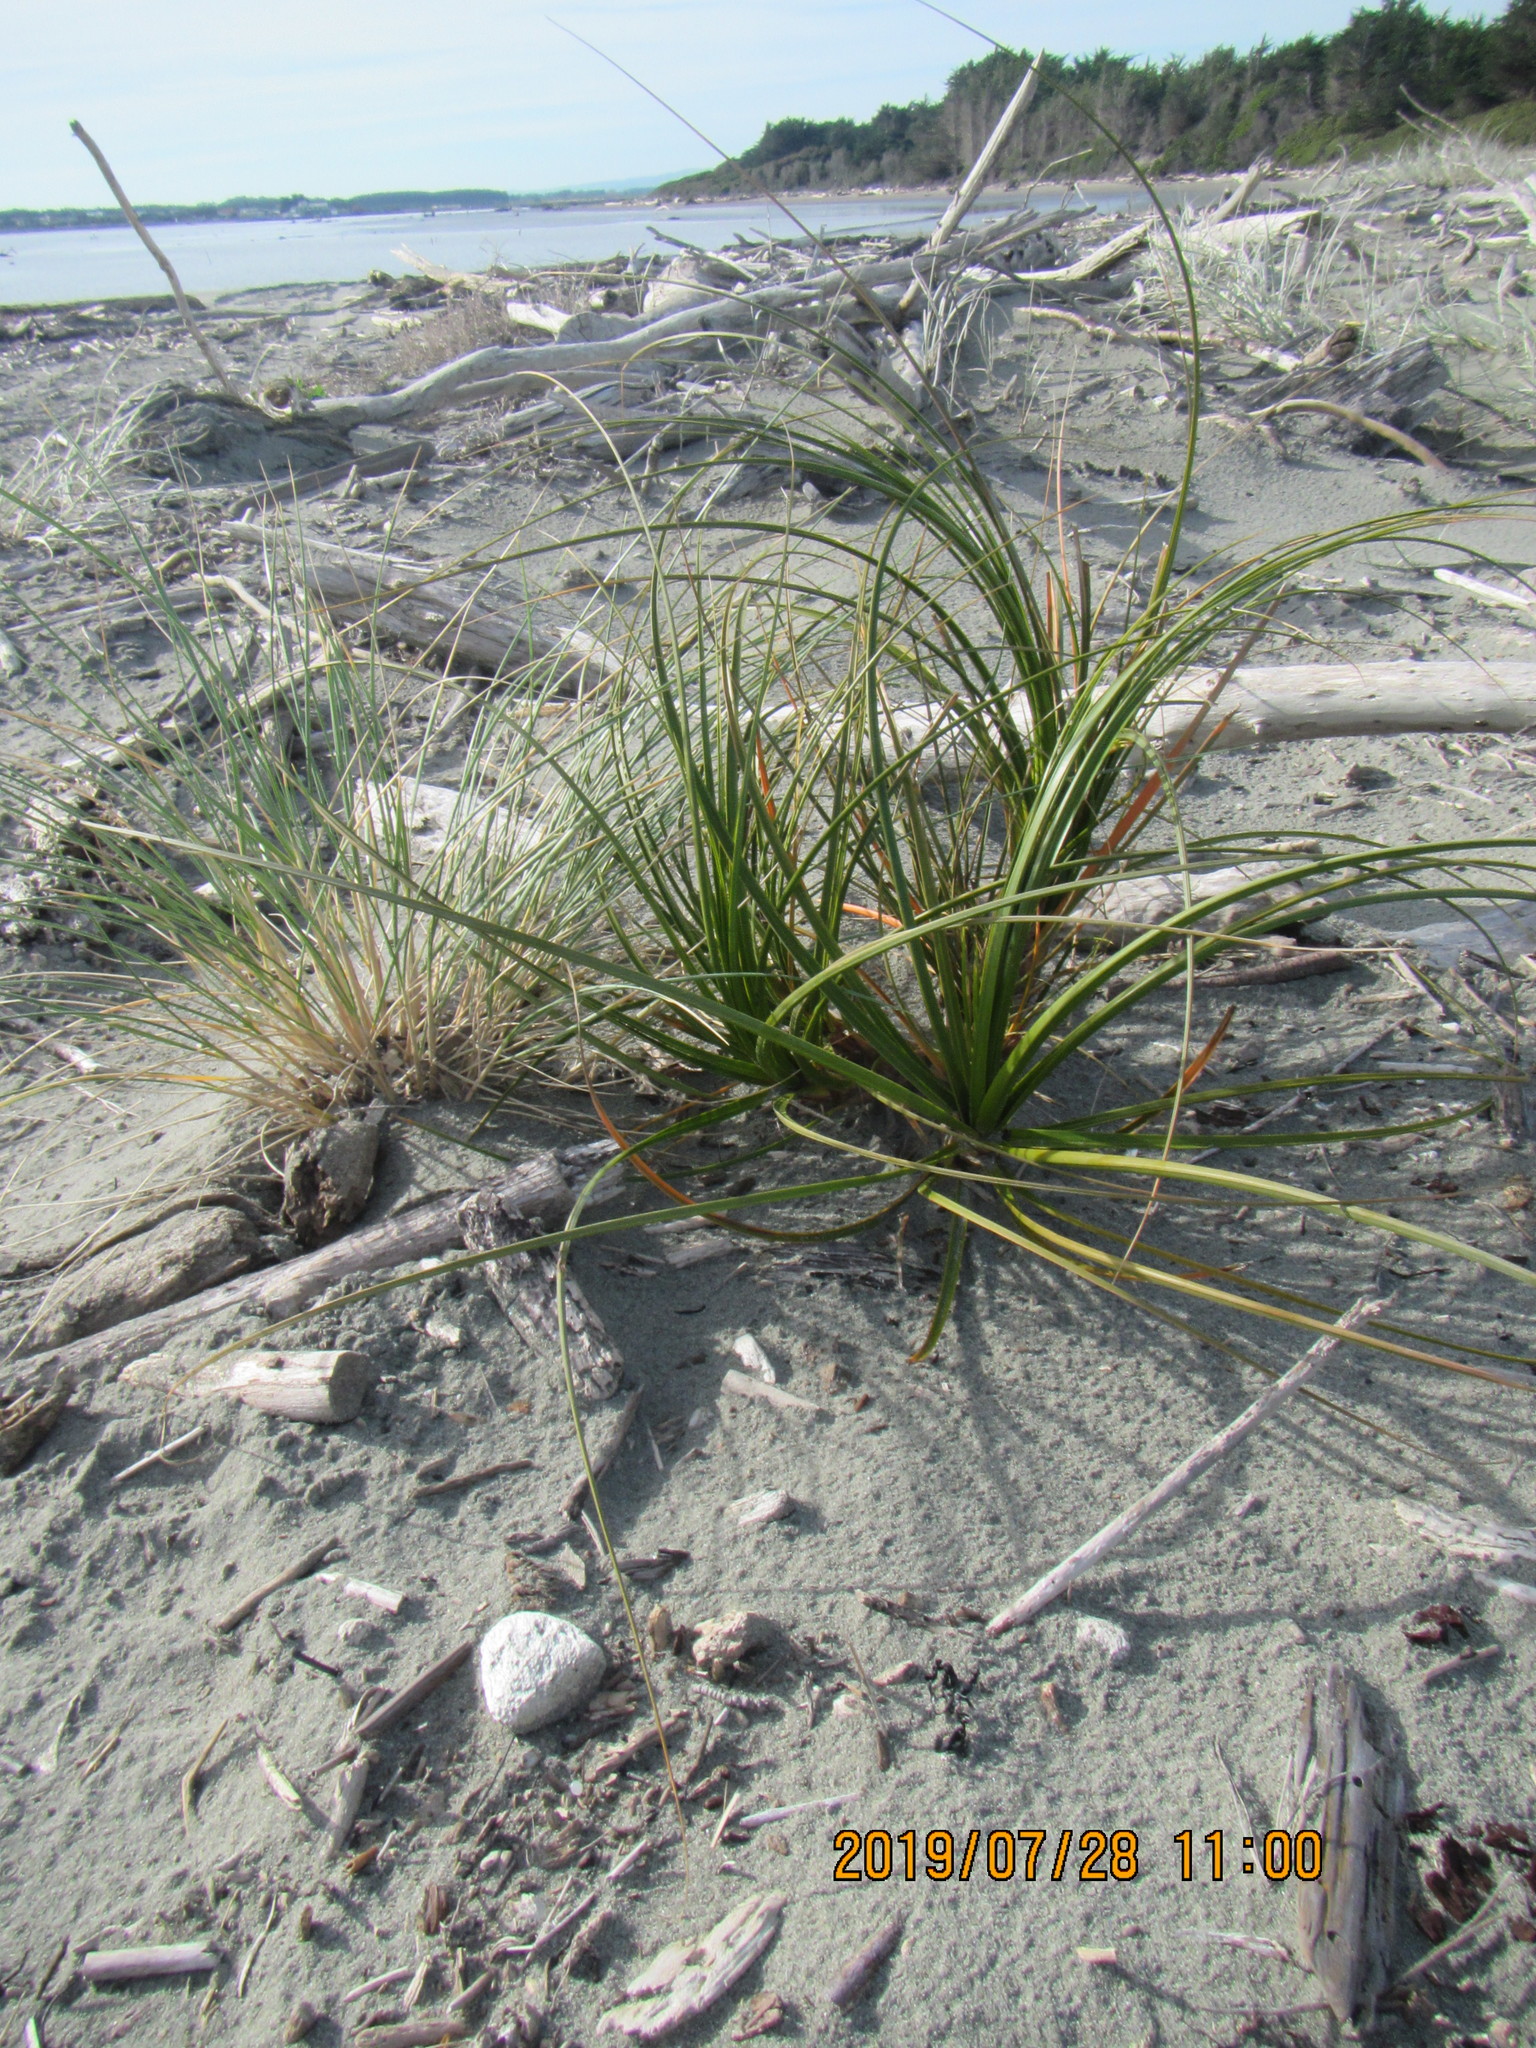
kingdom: Plantae
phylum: Tracheophyta
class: Liliopsida
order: Poales
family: Cyperaceae
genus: Ficinia
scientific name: Ficinia spiralis
